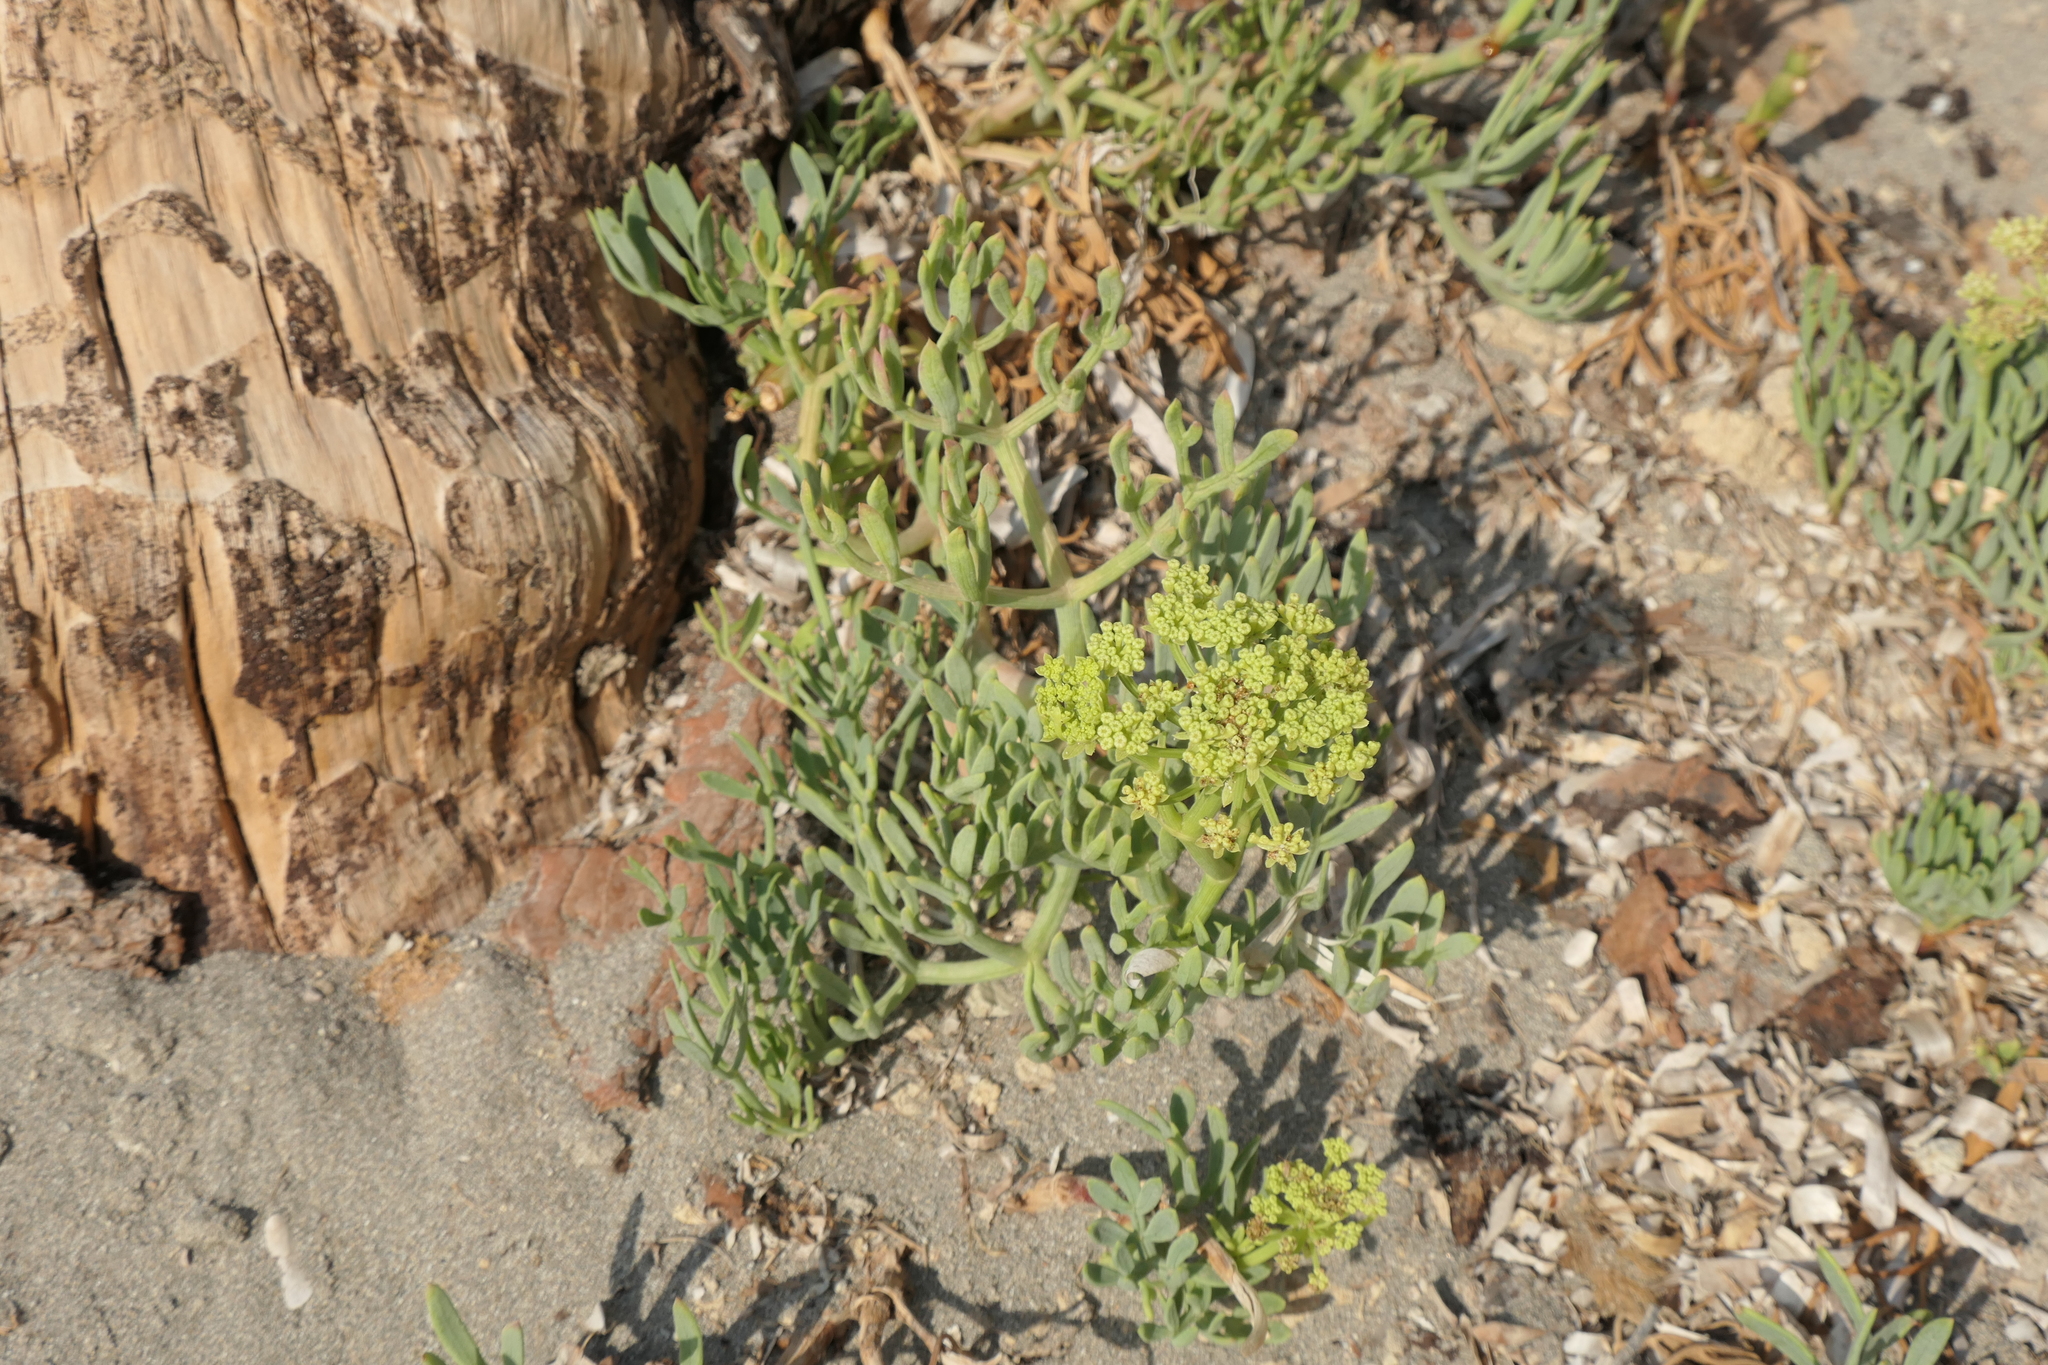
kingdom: Plantae
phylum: Tracheophyta
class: Magnoliopsida
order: Apiales
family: Apiaceae
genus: Crithmum
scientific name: Crithmum maritimum
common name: Rock samphire
